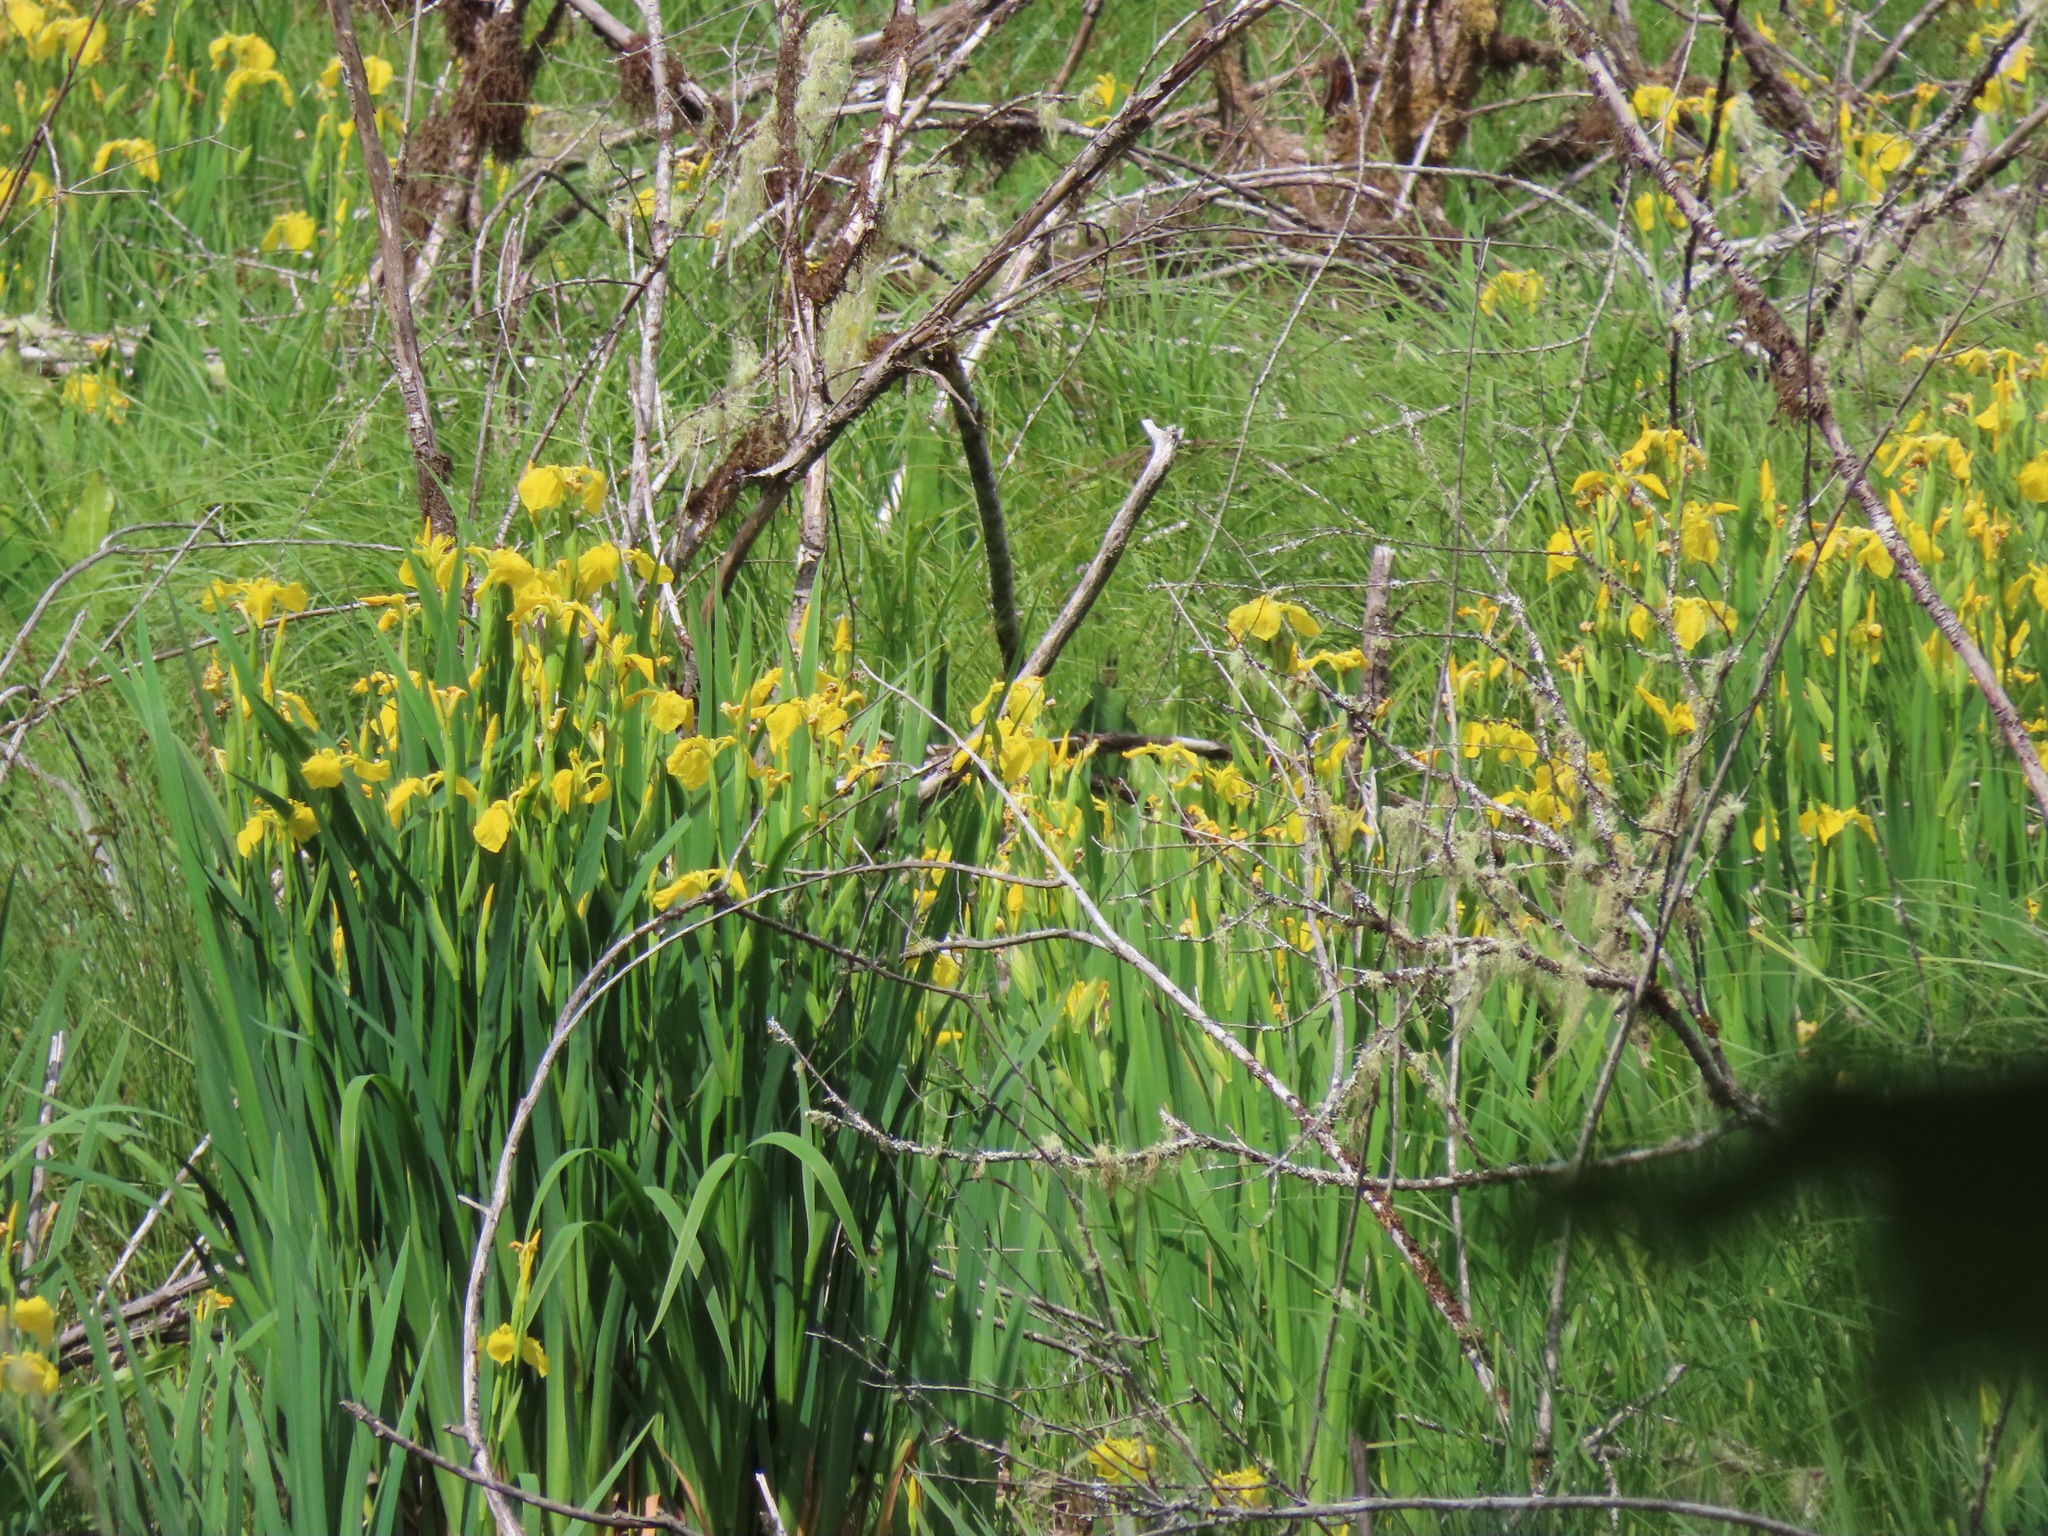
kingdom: Plantae
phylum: Tracheophyta
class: Liliopsida
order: Asparagales
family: Iridaceae
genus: Iris
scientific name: Iris pseudacorus
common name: Yellow flag
